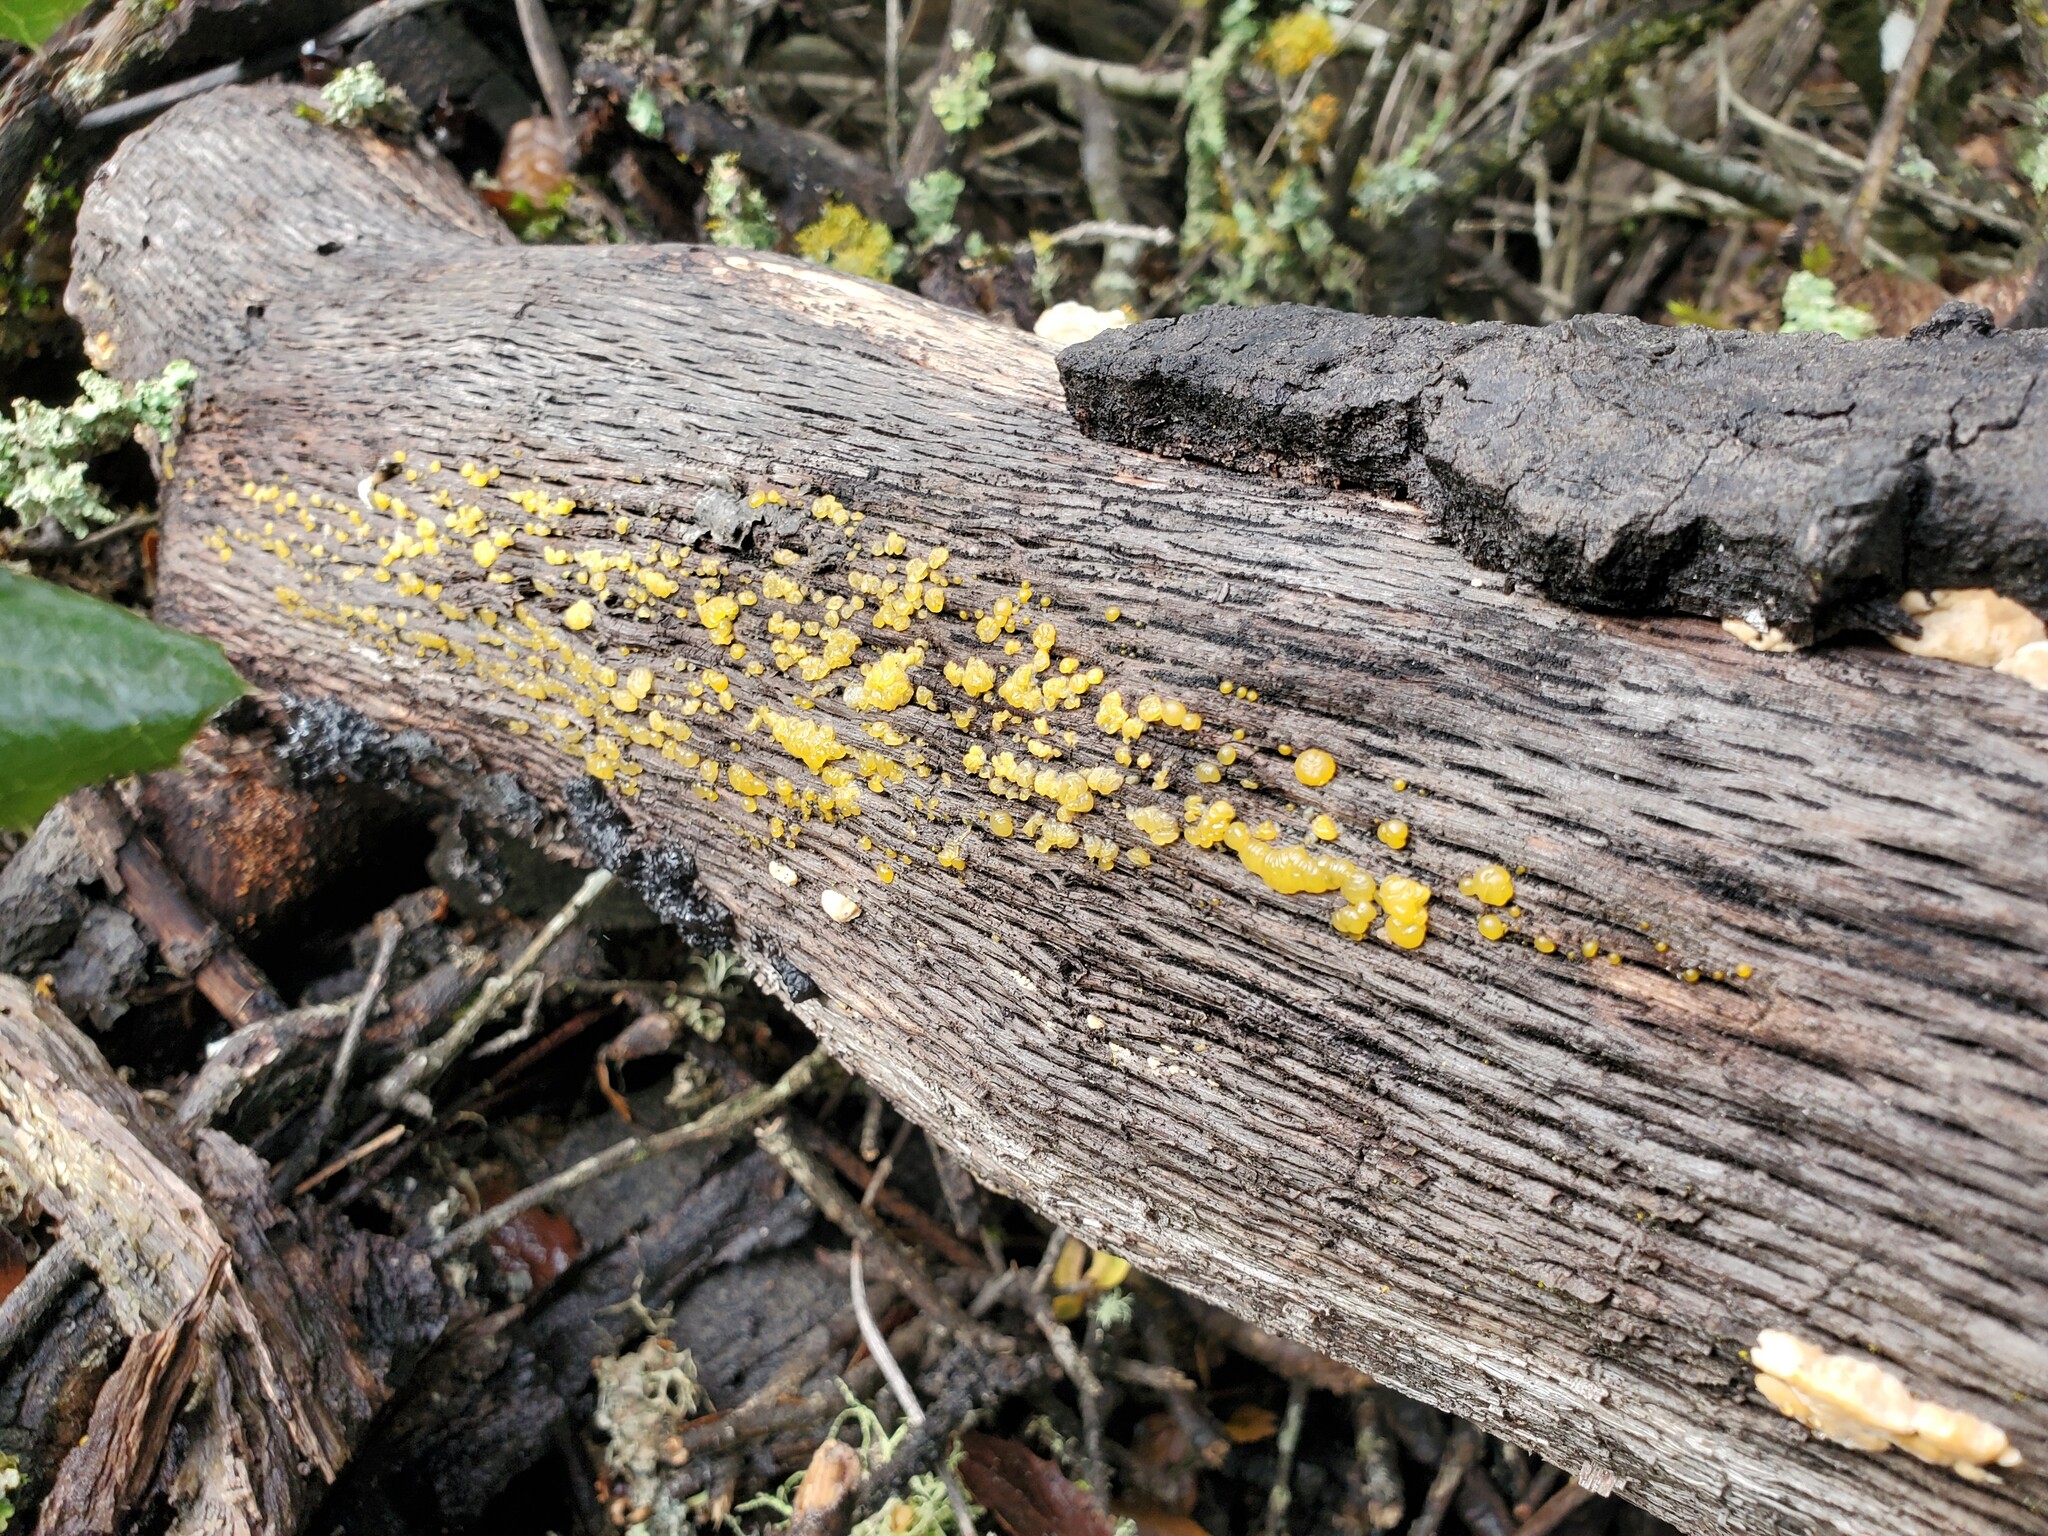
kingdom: Fungi
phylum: Basidiomycota
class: Dacrymycetes
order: Dacrymycetales
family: Dacrymycetaceae
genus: Dacrymyces
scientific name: Dacrymyces stillatus
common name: Common jelly spot
